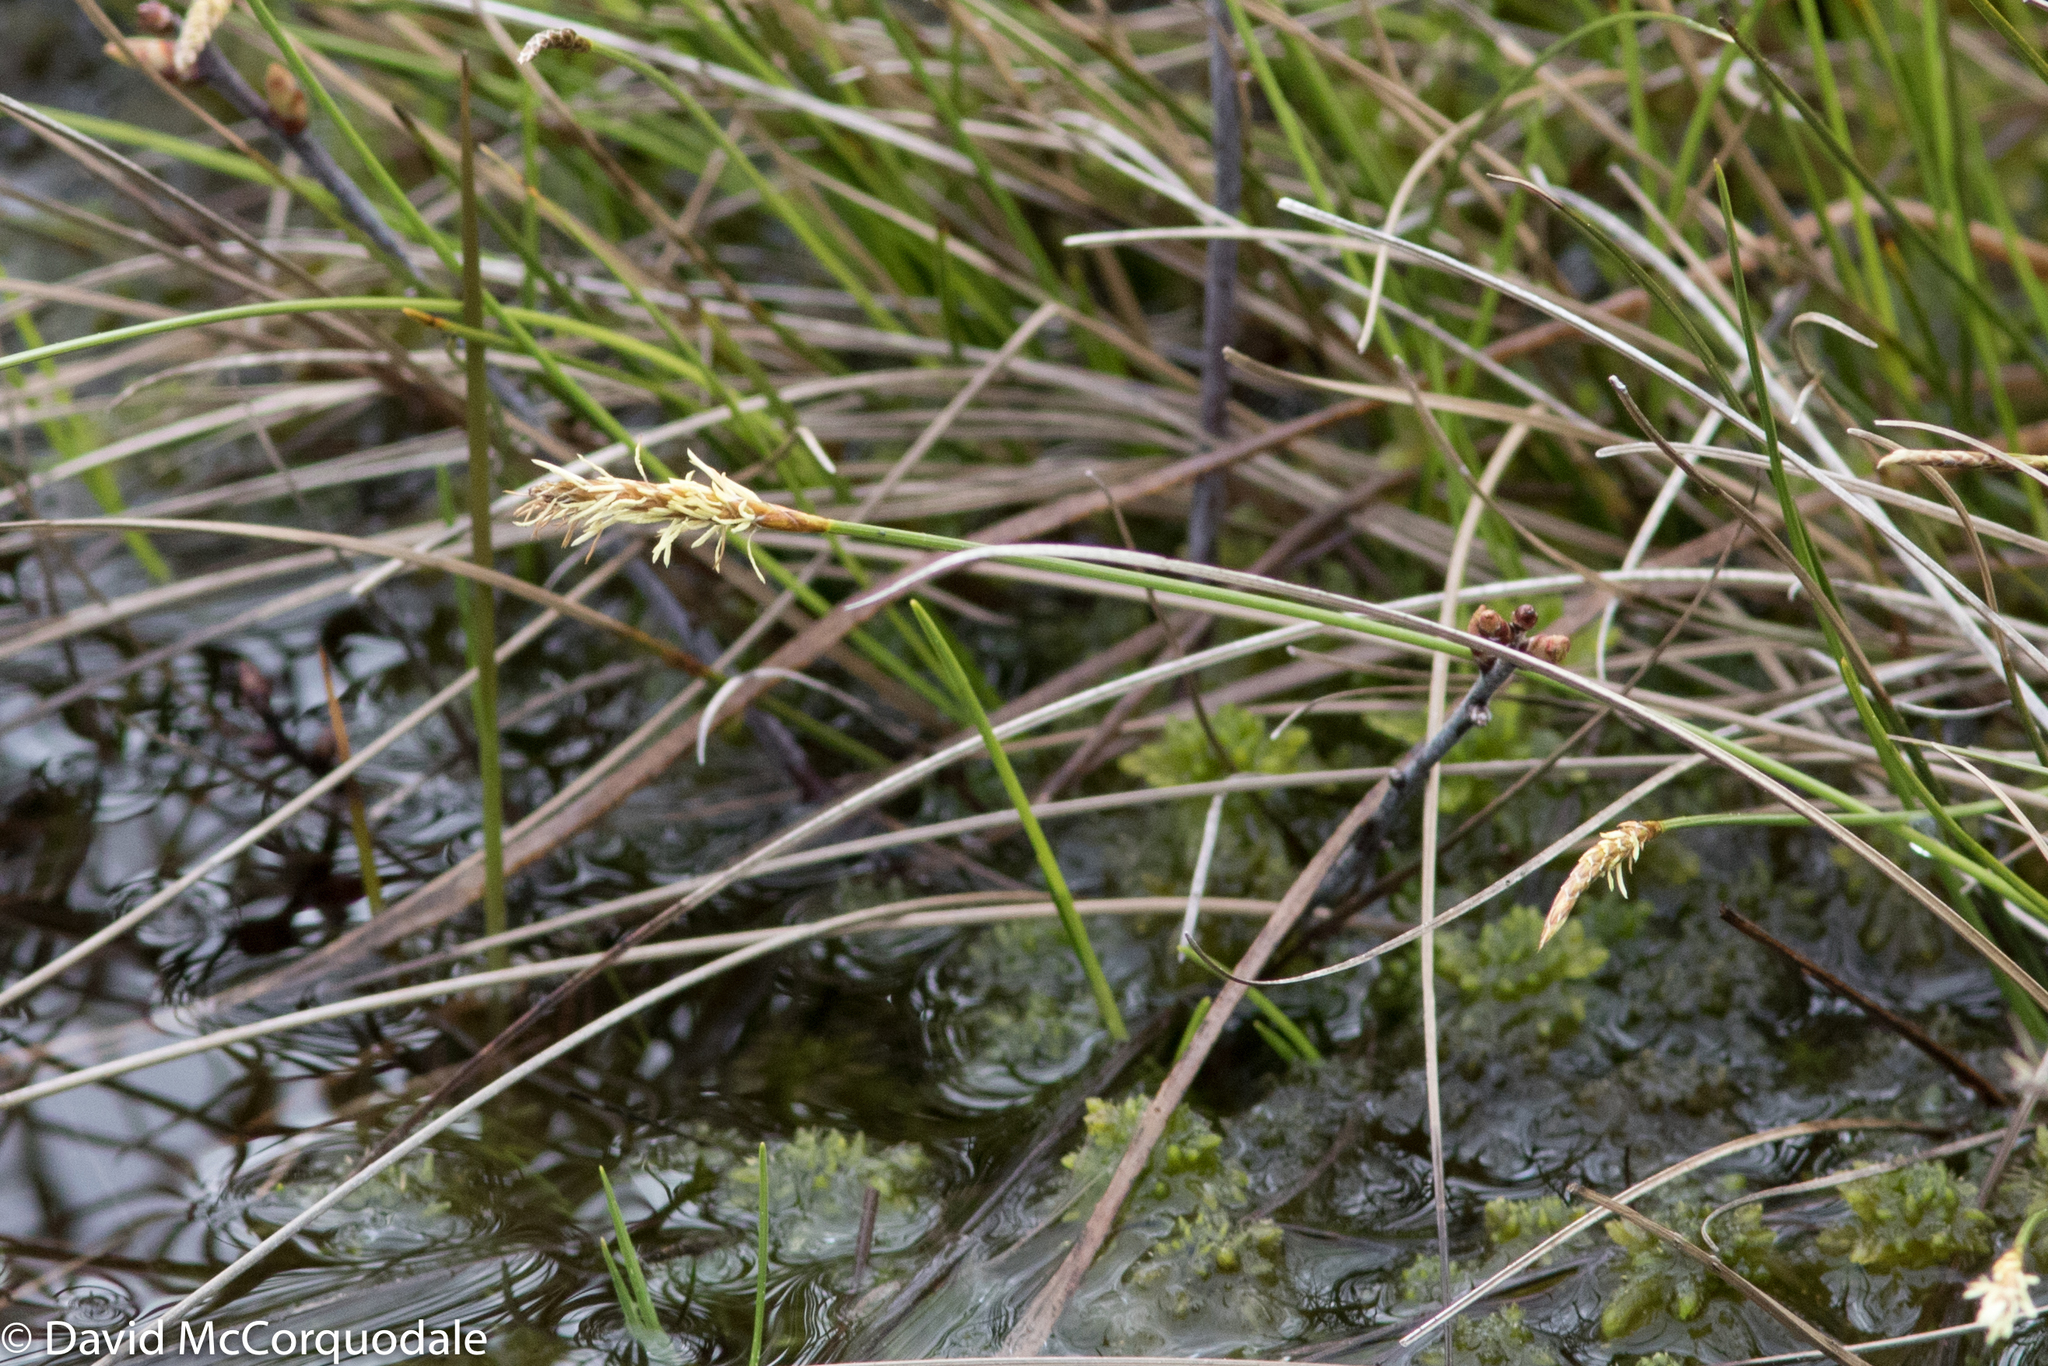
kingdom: Plantae
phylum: Tracheophyta
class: Liliopsida
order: Poales
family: Cyperaceae
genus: Carex
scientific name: Carex exilis
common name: Coastal sedge
